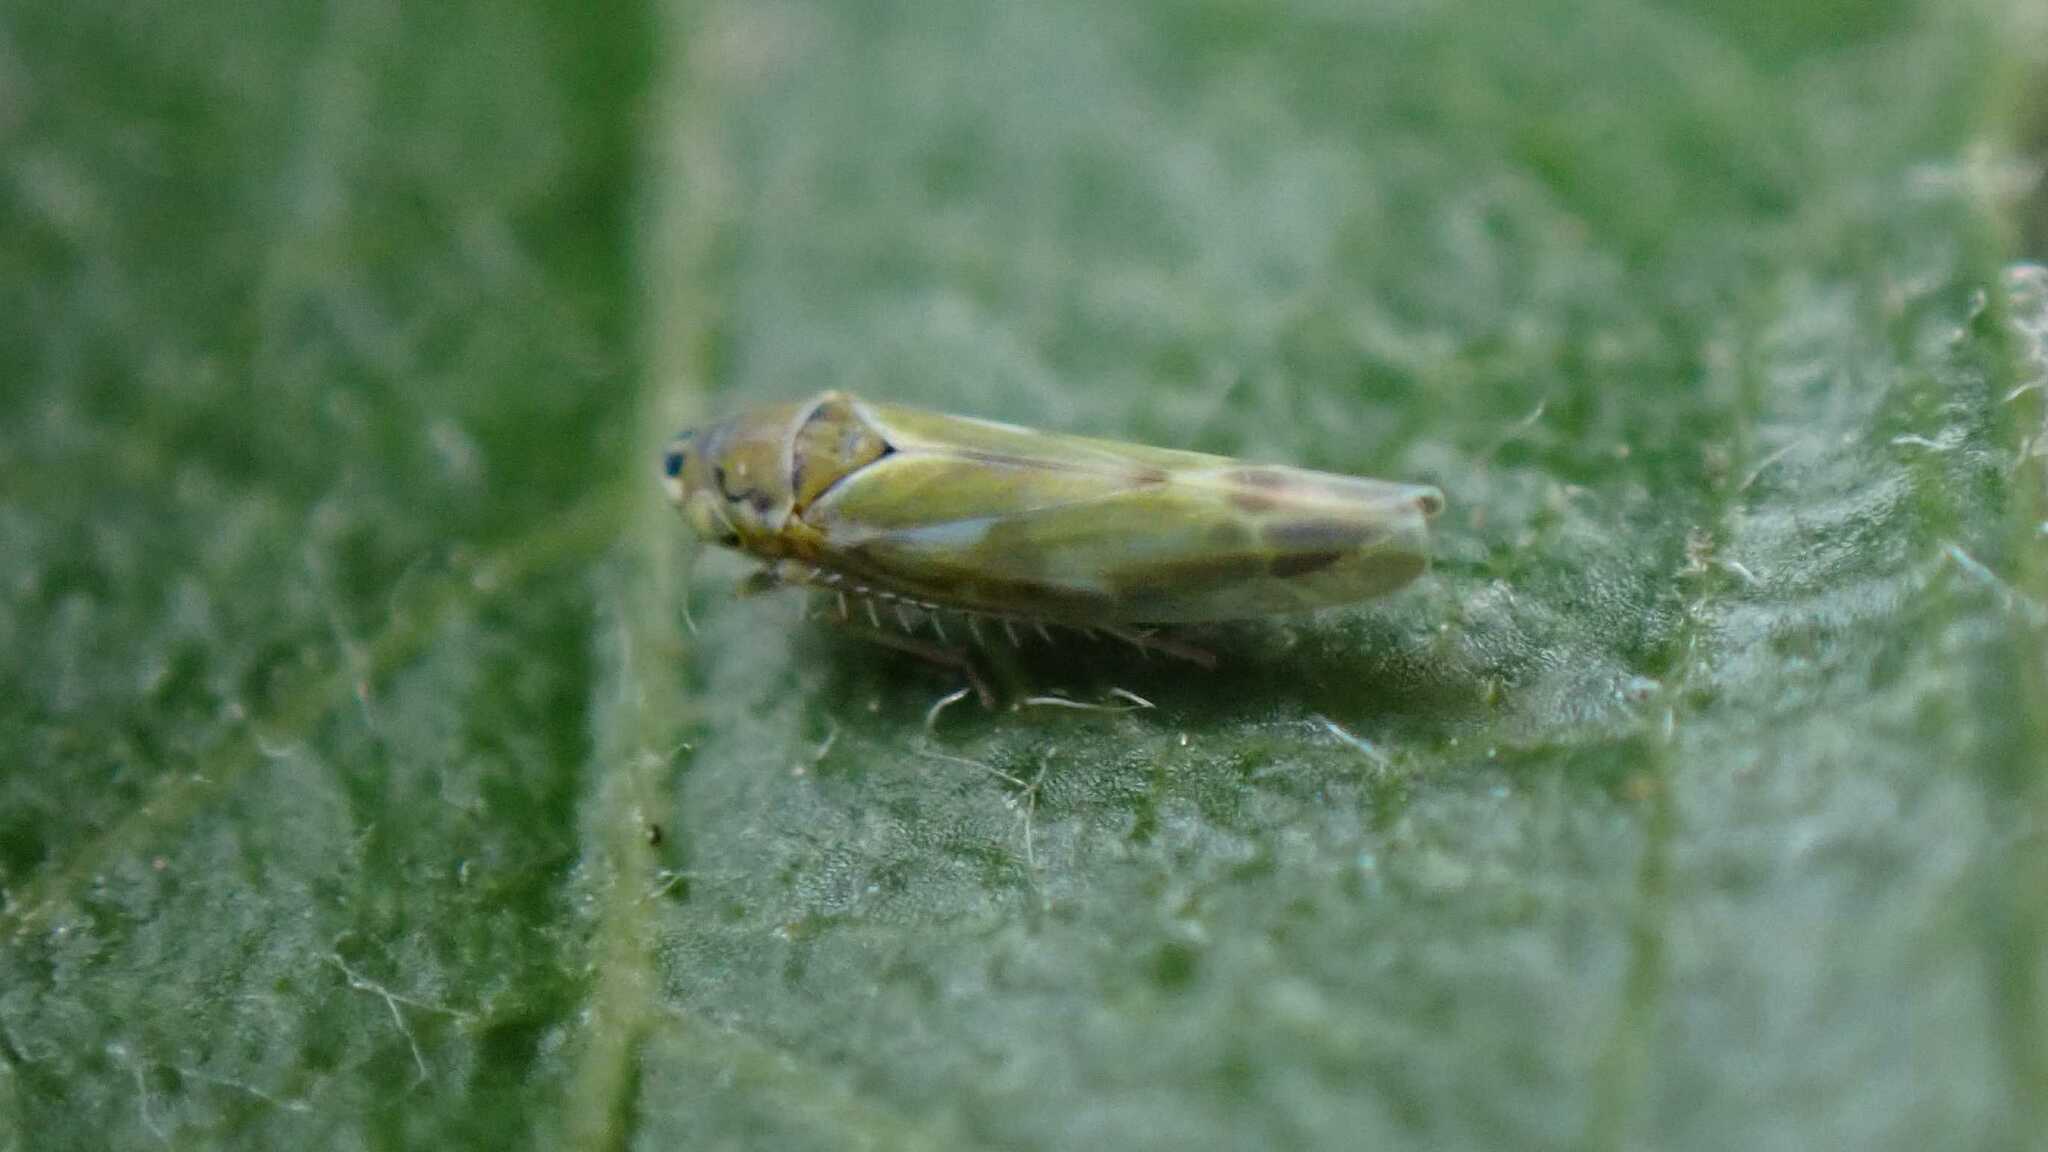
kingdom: Animalia
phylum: Arthropoda
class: Insecta
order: Hemiptera
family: Cicadellidae
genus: Frutioidia
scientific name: Frutioidia bisignata
